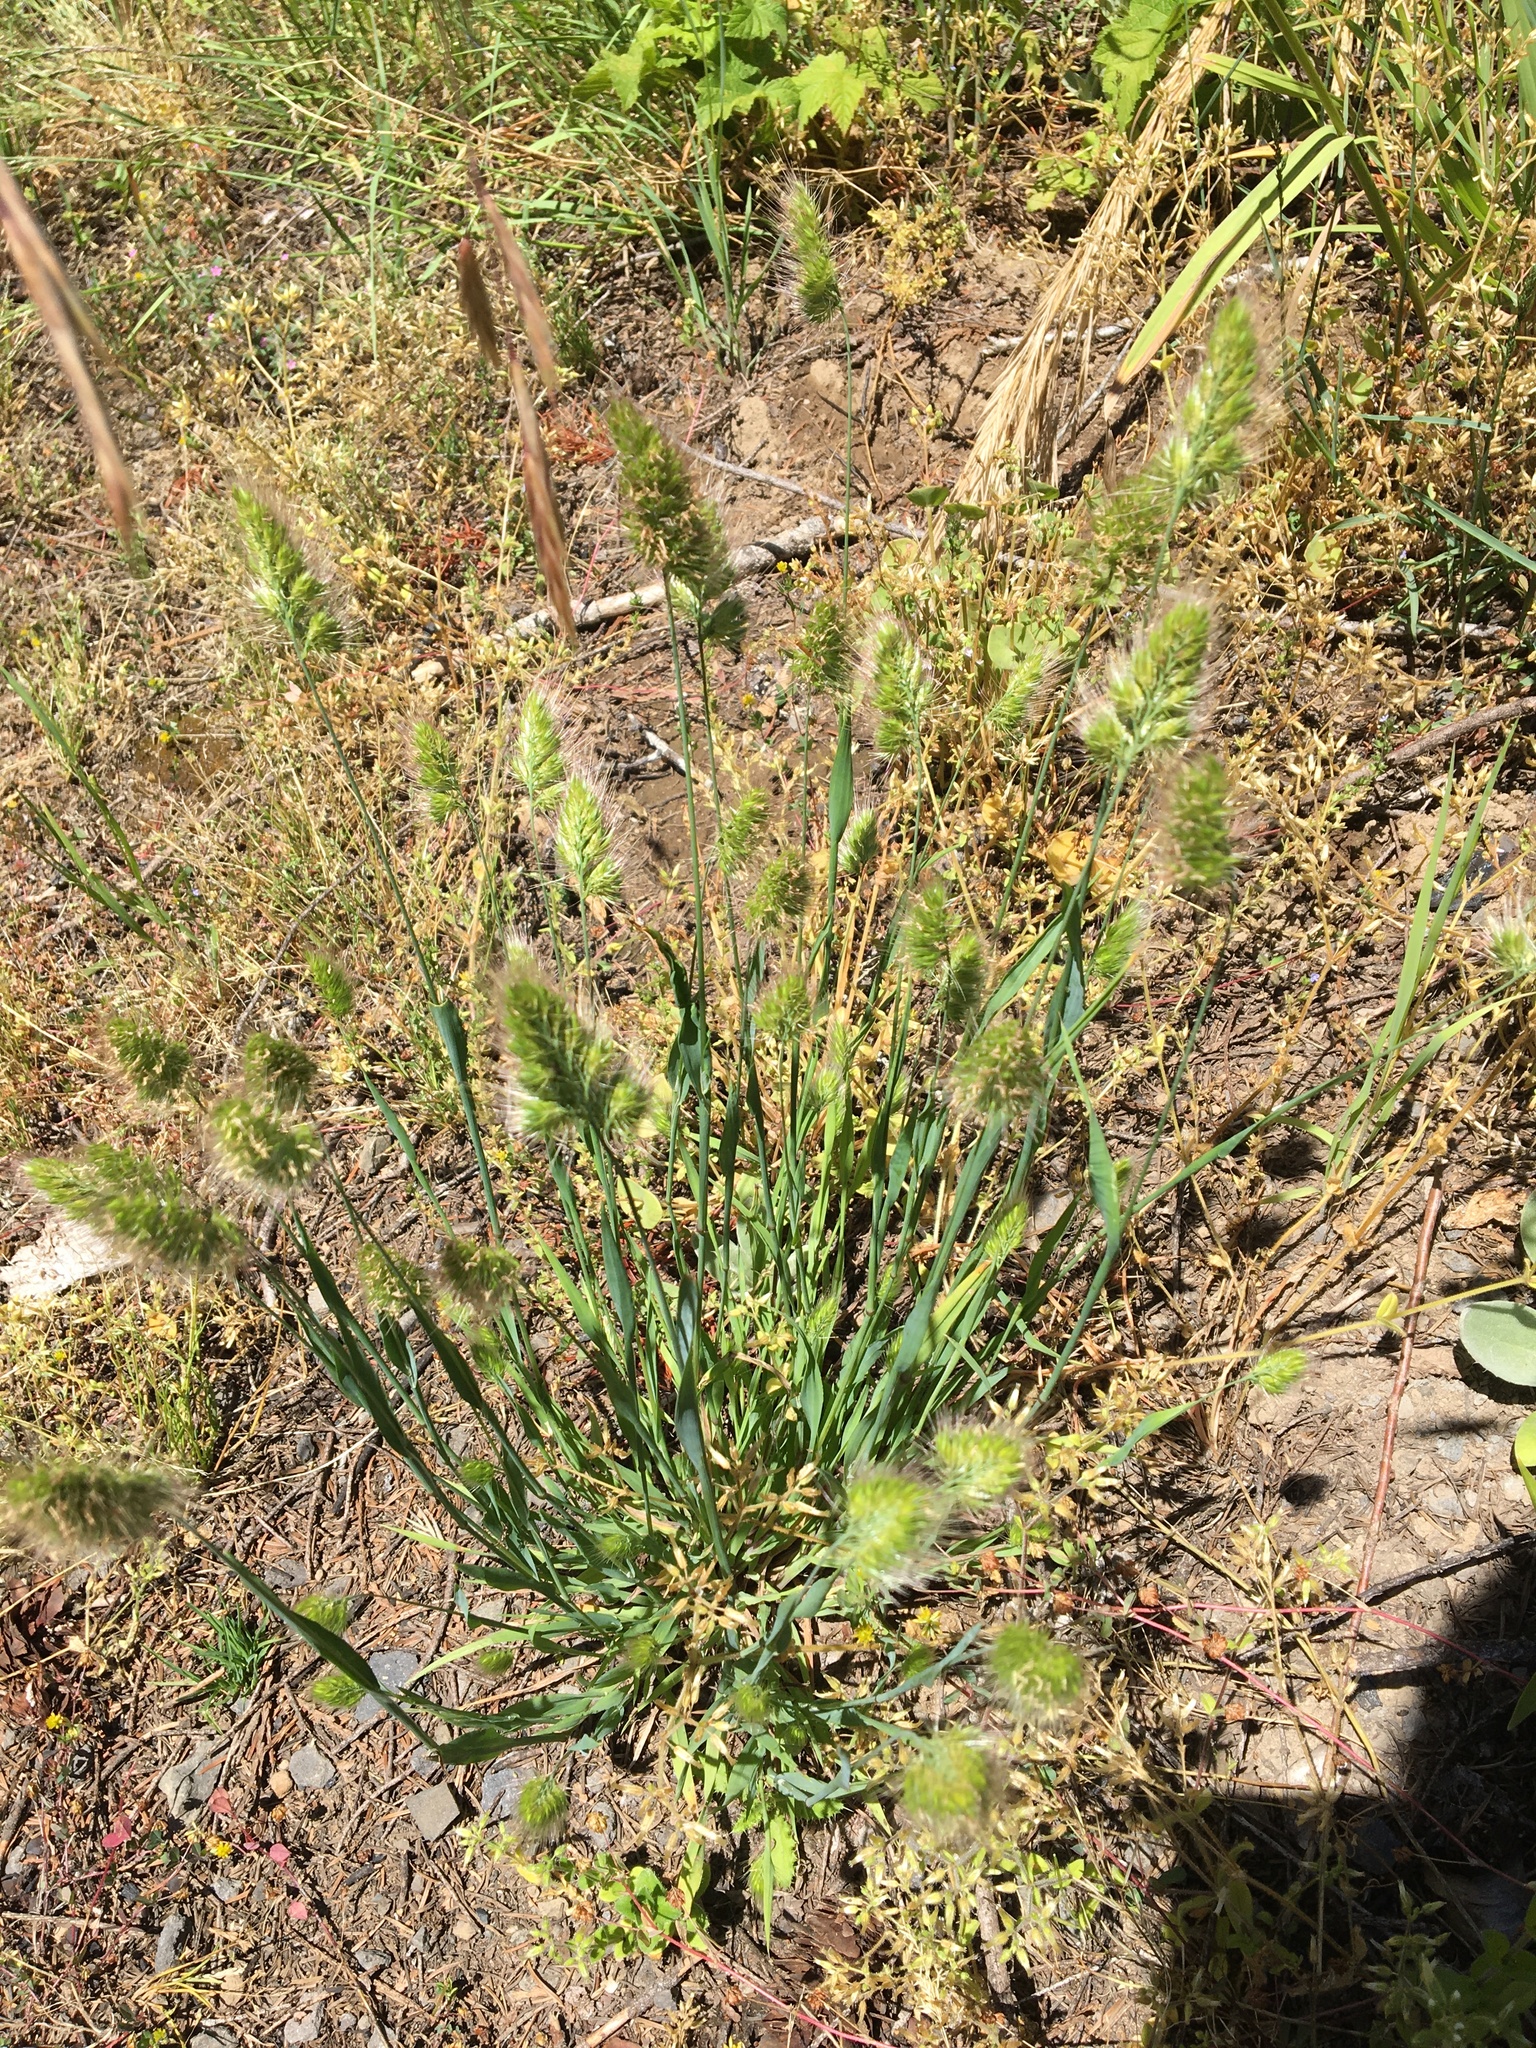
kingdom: Plantae
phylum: Tracheophyta
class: Liliopsida
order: Poales
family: Poaceae
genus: Cynosurus
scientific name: Cynosurus echinatus
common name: Rough dog's-tail
